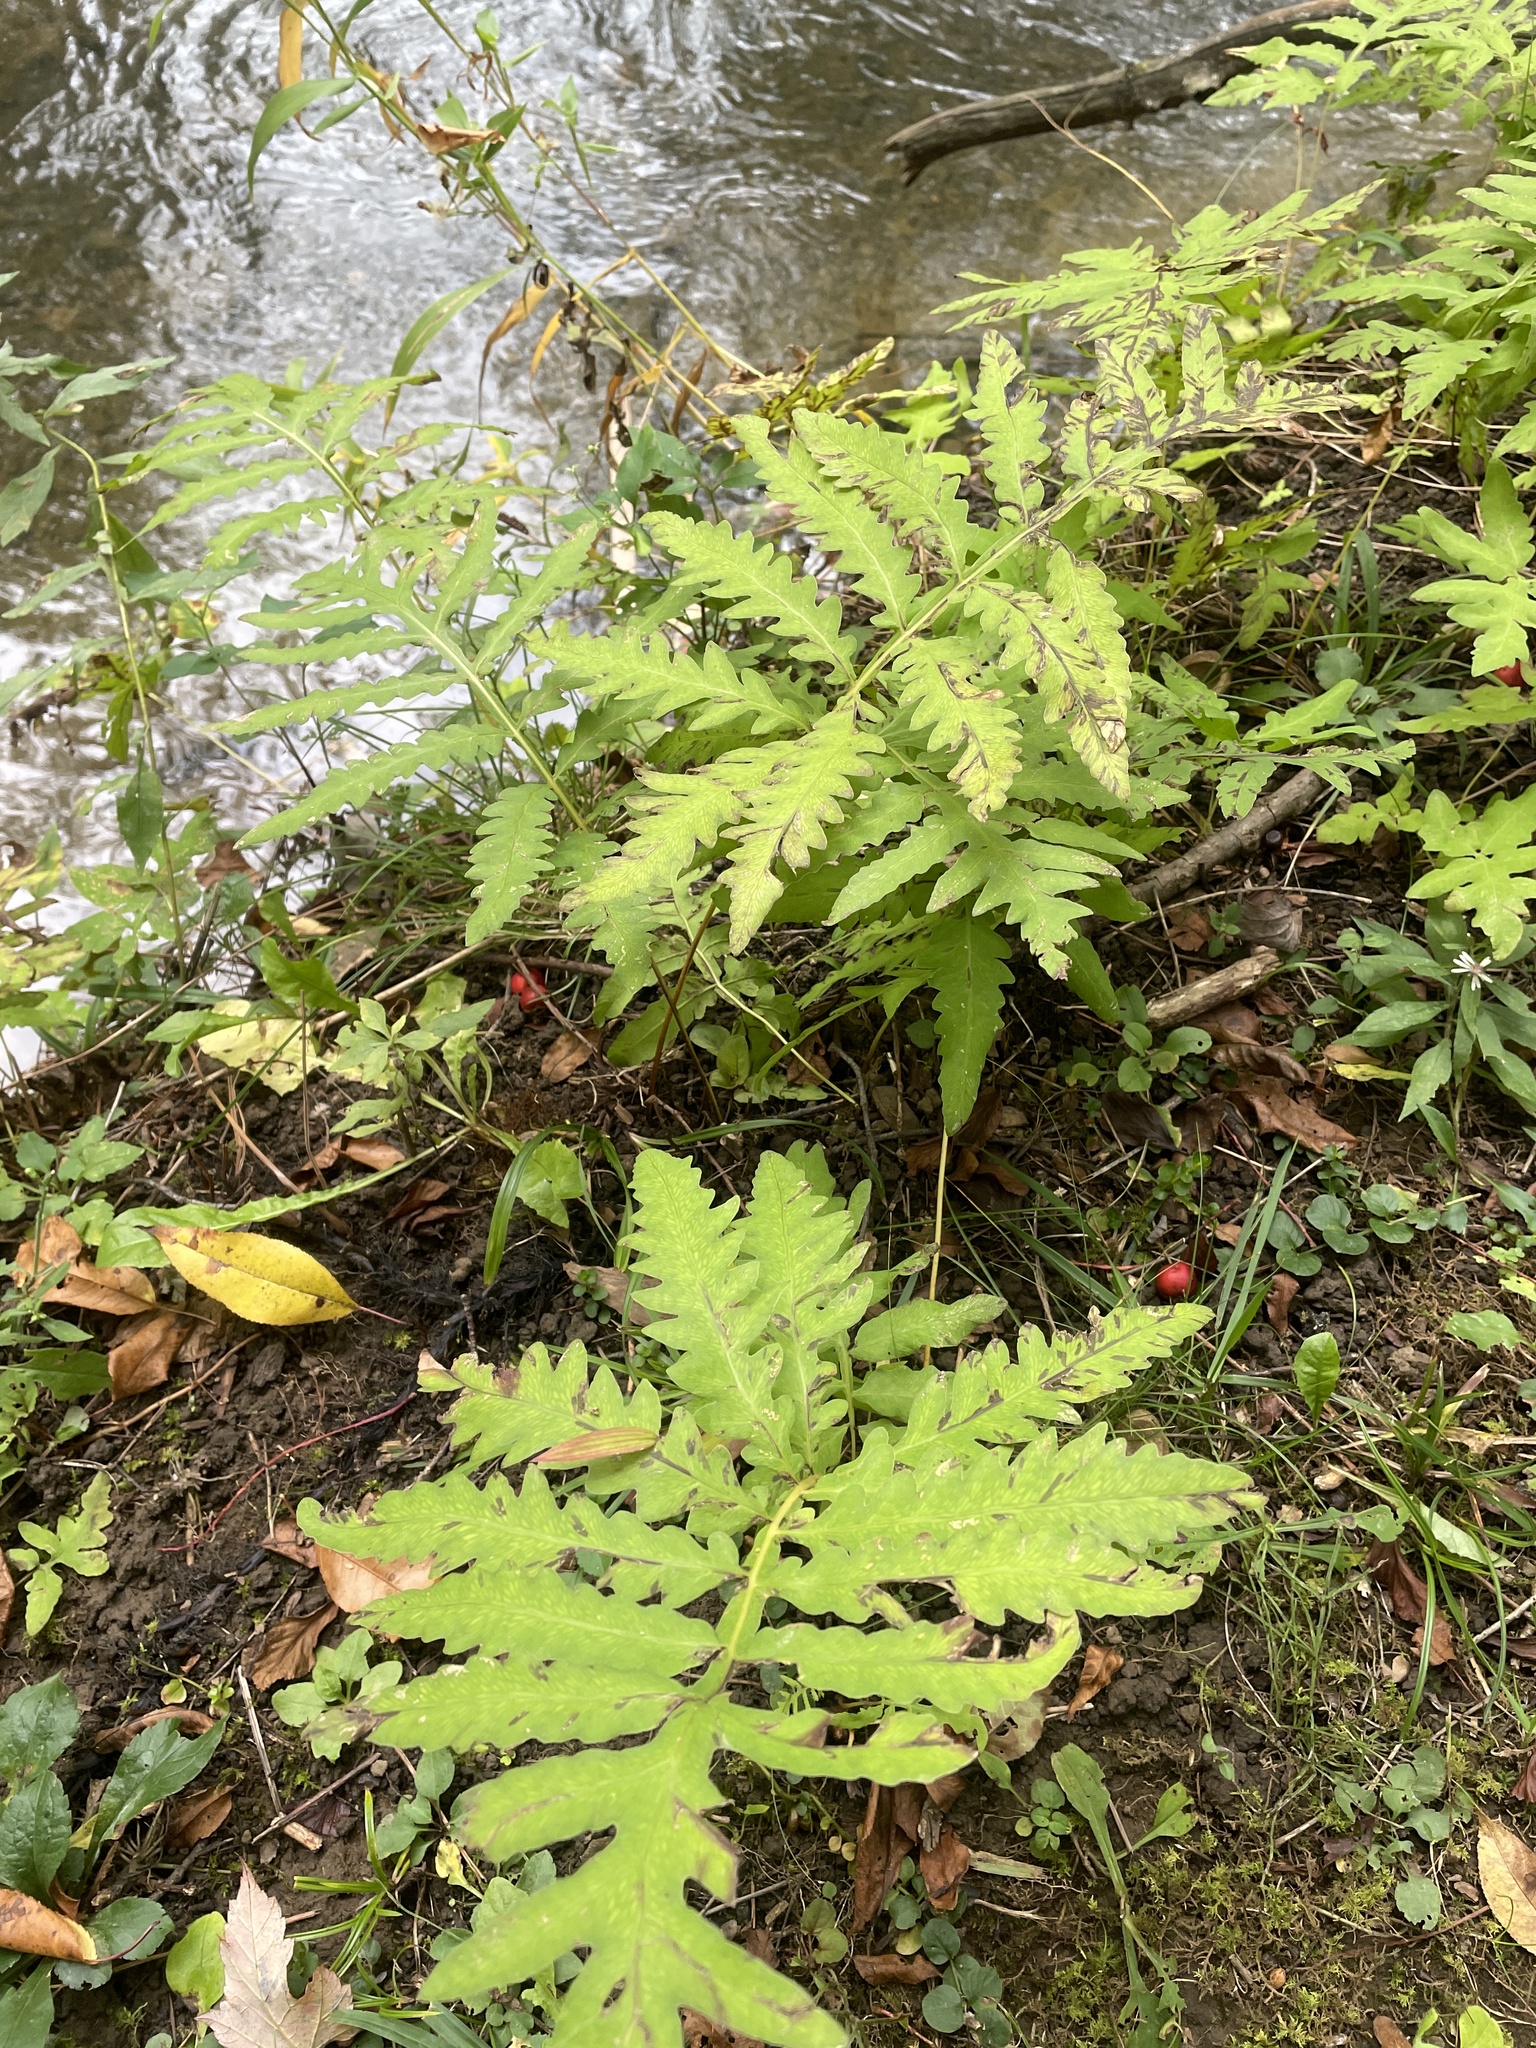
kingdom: Plantae
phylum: Tracheophyta
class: Polypodiopsida
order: Polypodiales
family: Onocleaceae
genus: Onoclea
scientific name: Onoclea sensibilis
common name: Sensitive fern
